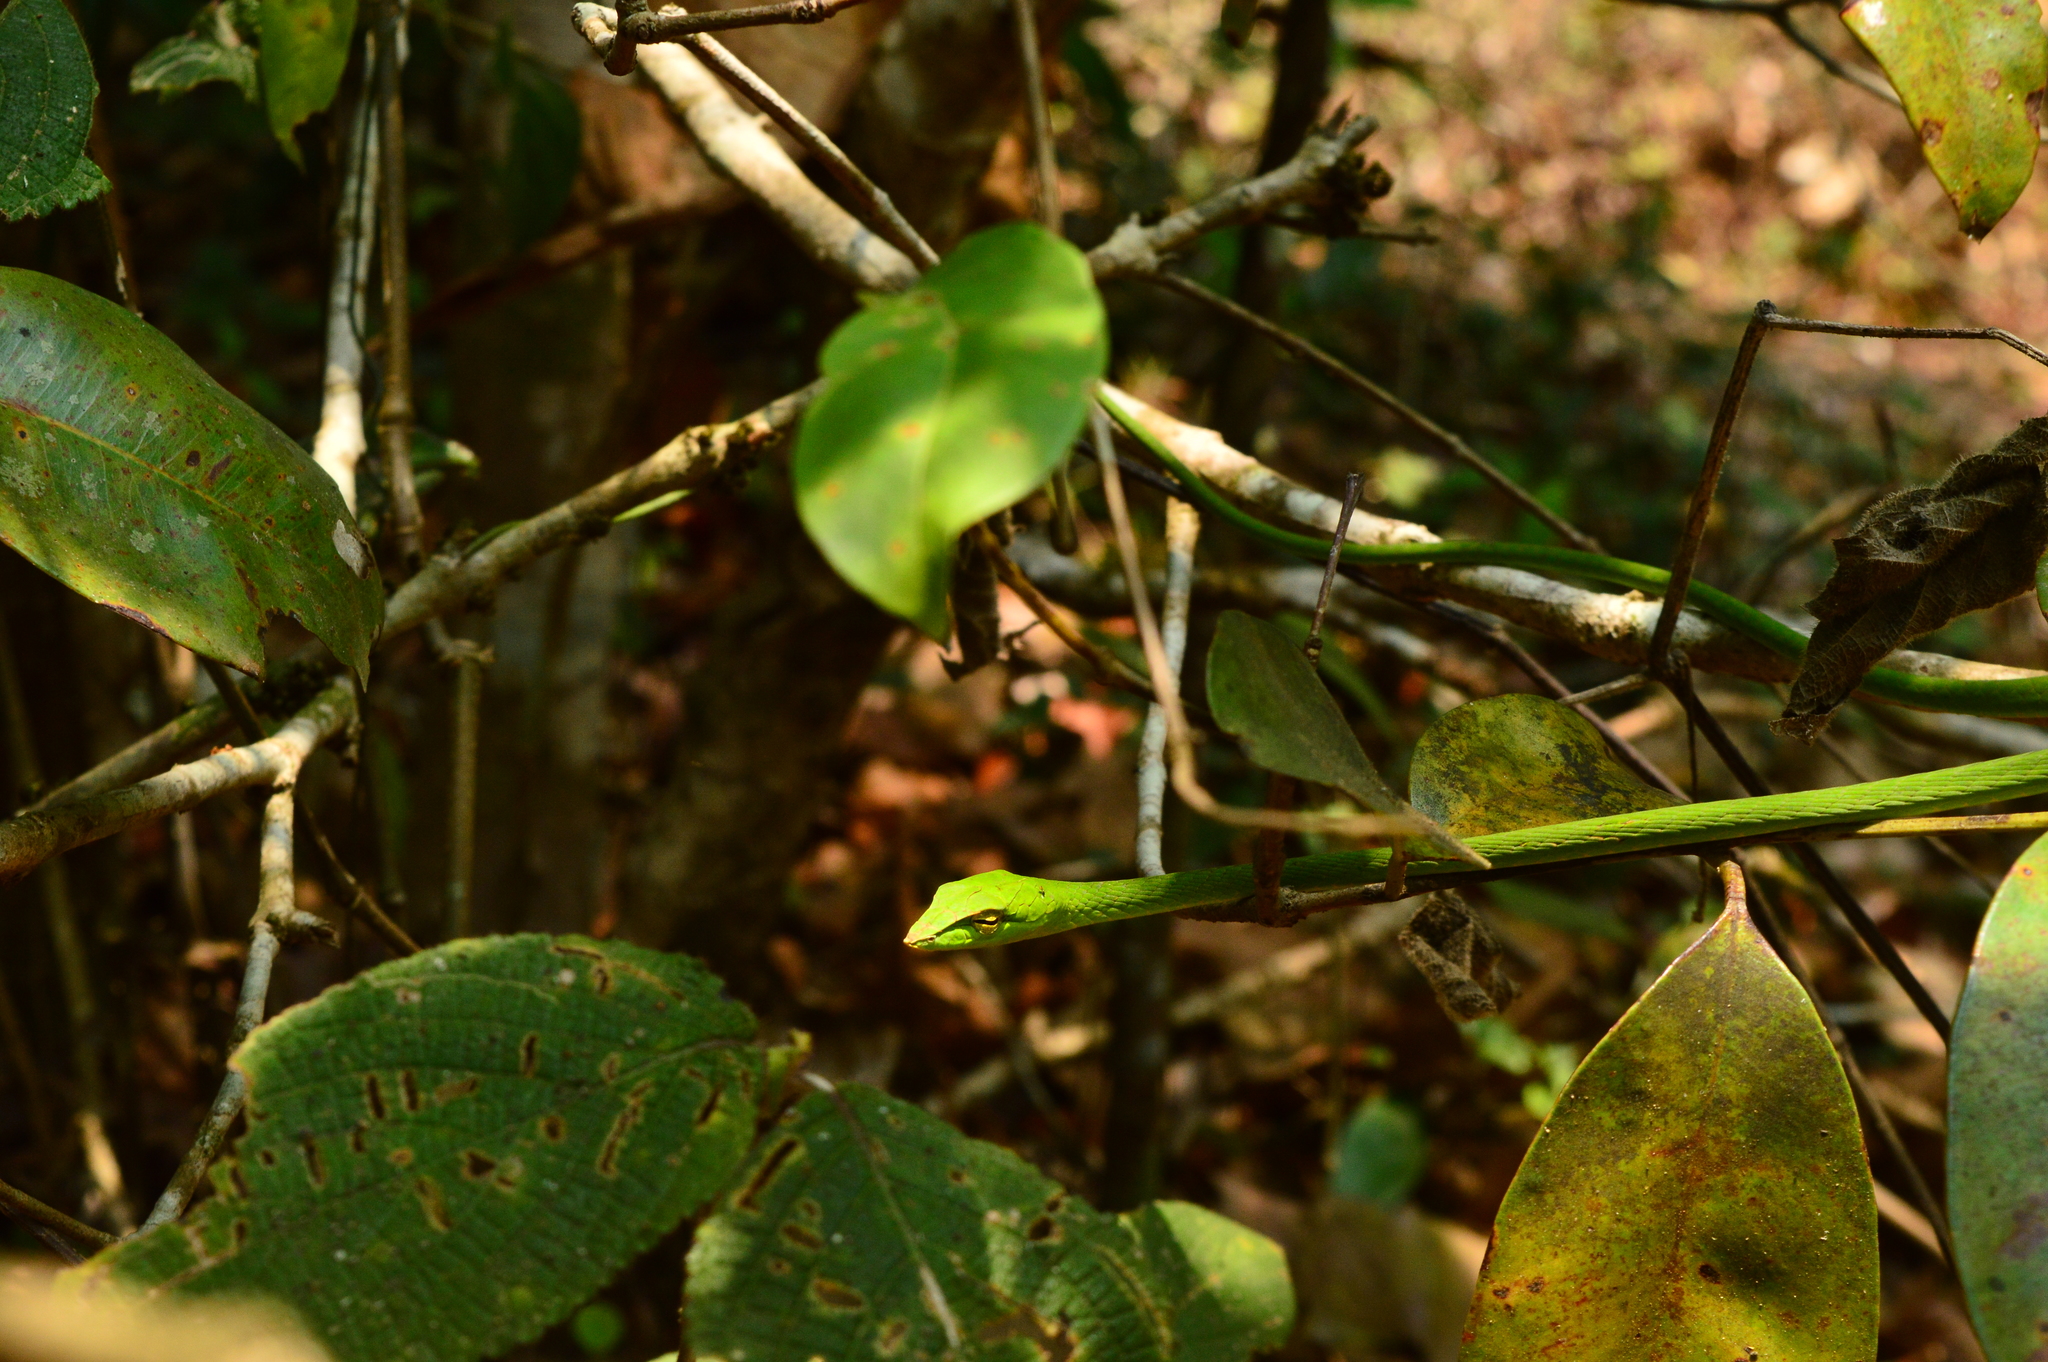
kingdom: Animalia
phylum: Chordata
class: Squamata
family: Colubridae
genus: Ahaetulla
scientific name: Ahaetulla farnsworthi
